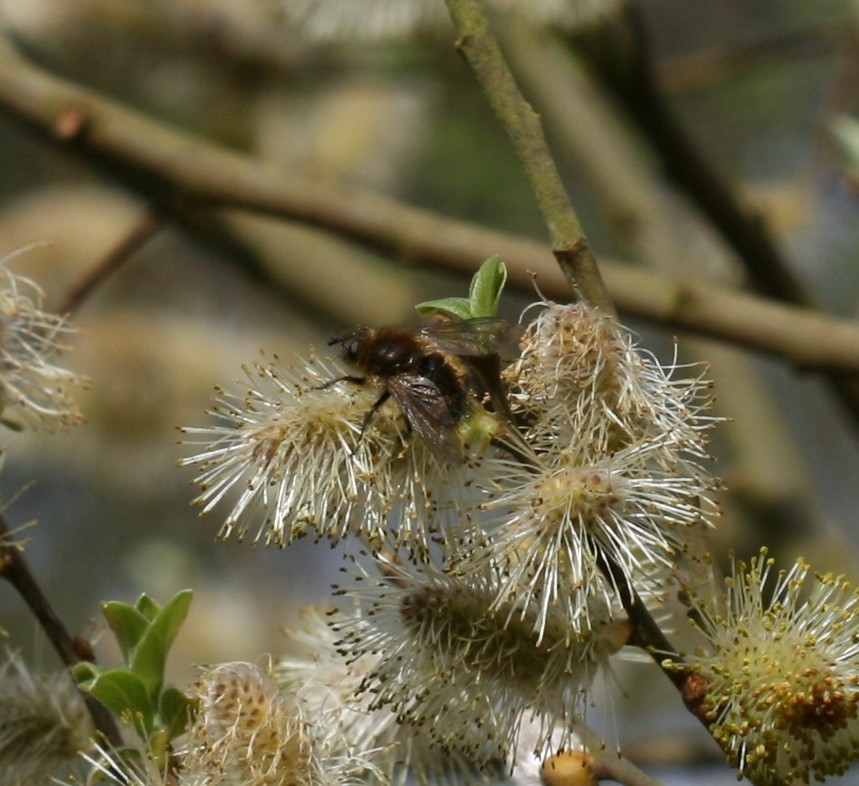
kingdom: Animalia
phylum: Arthropoda
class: Insecta
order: Diptera
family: Tachinidae
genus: Tachina
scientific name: Tachina ursina
